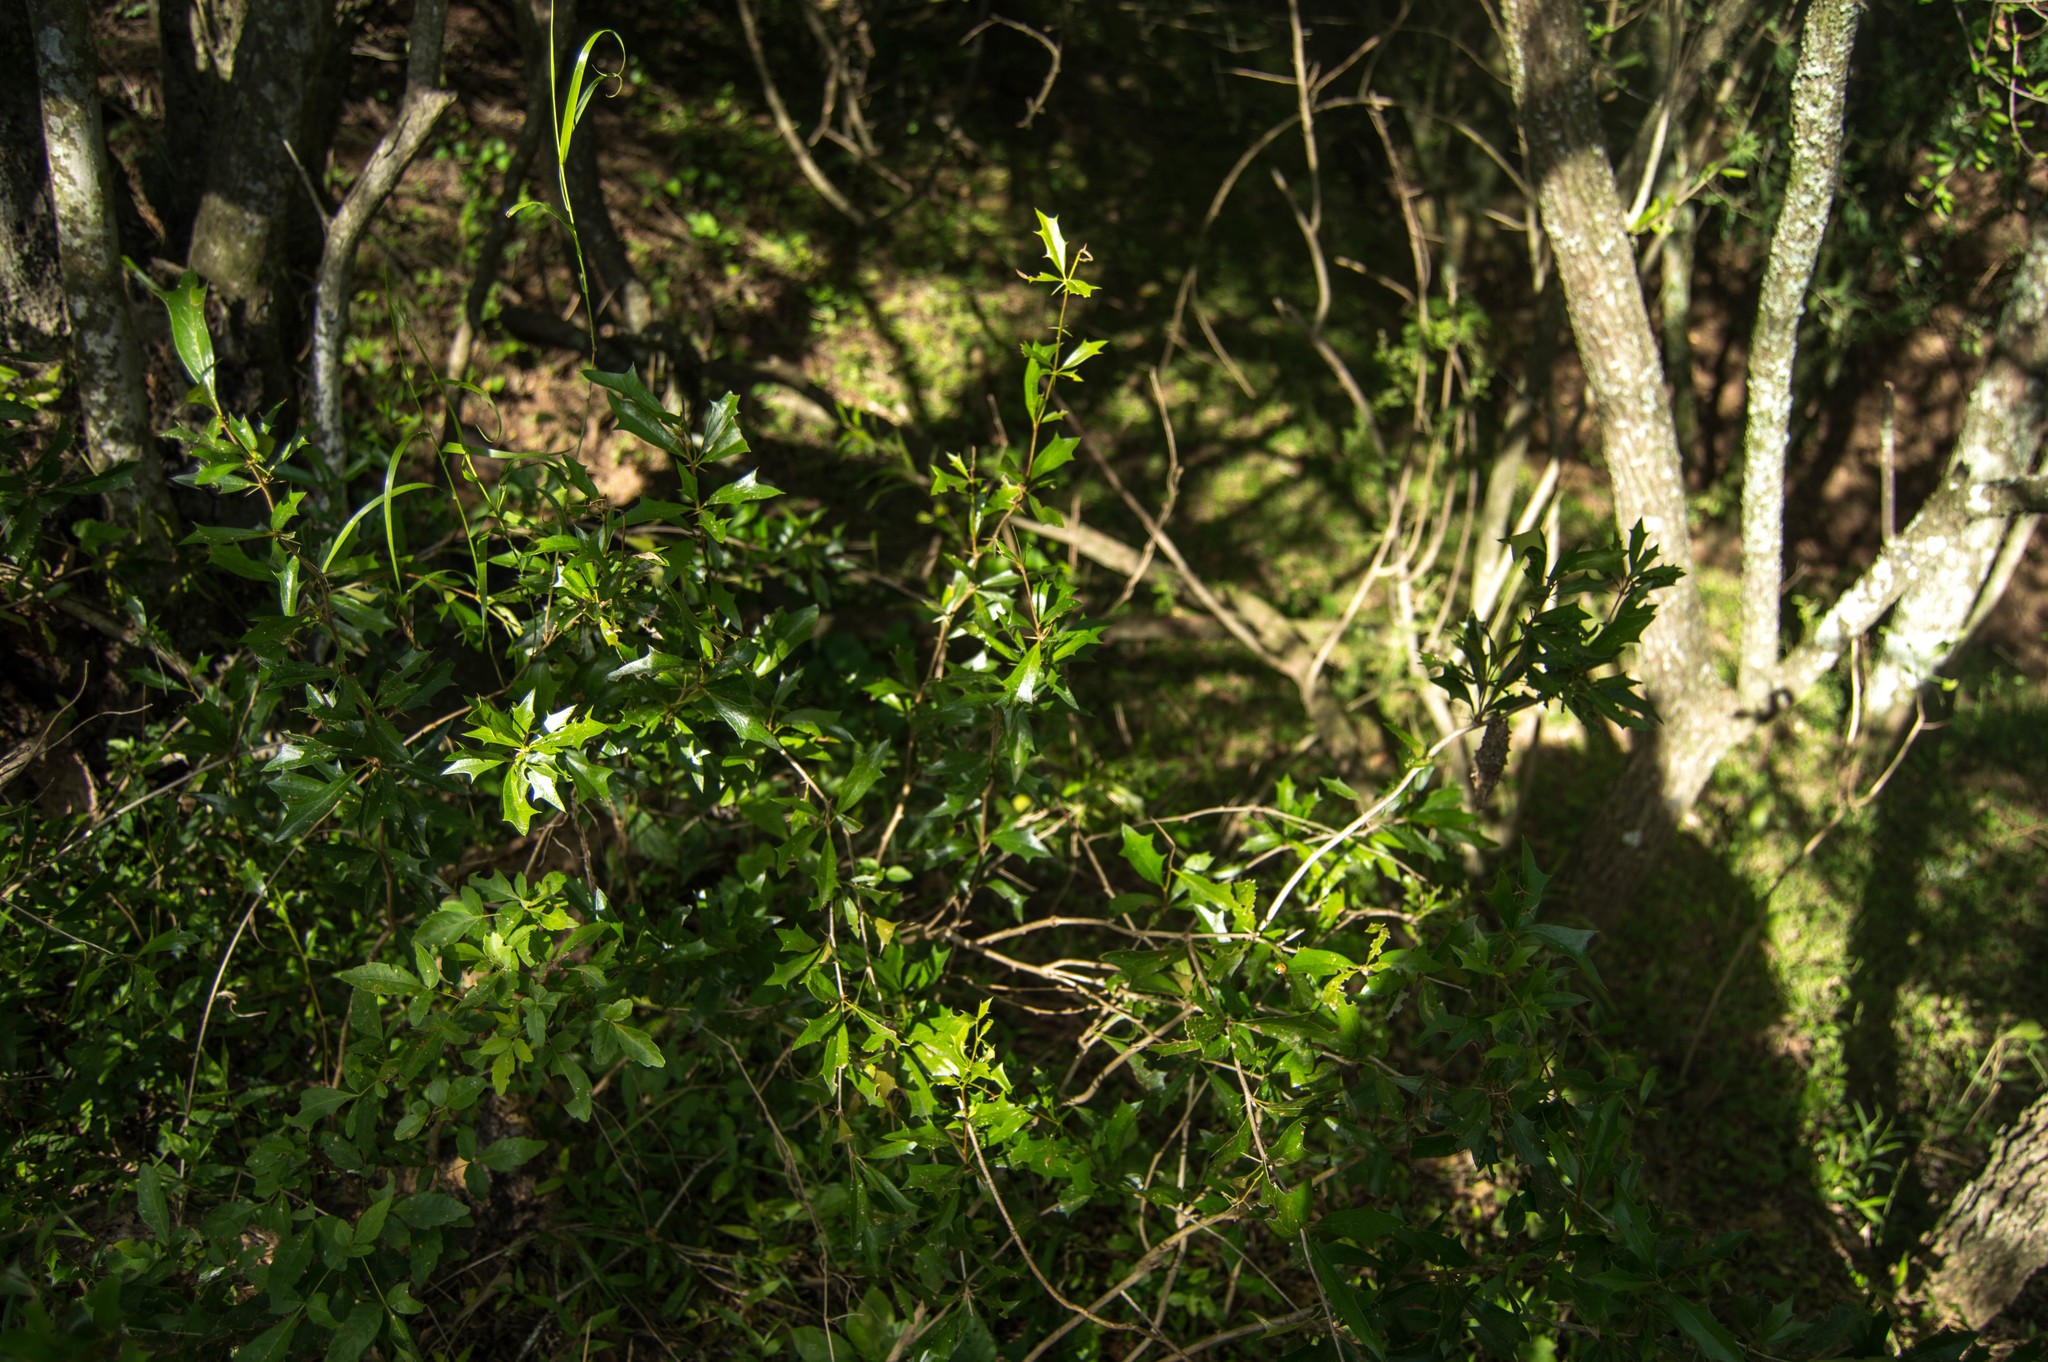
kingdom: Plantae
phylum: Tracheophyta
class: Magnoliopsida
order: Ranunculales
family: Berberidaceae
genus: Berberis
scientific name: Berberis ruscifolia
